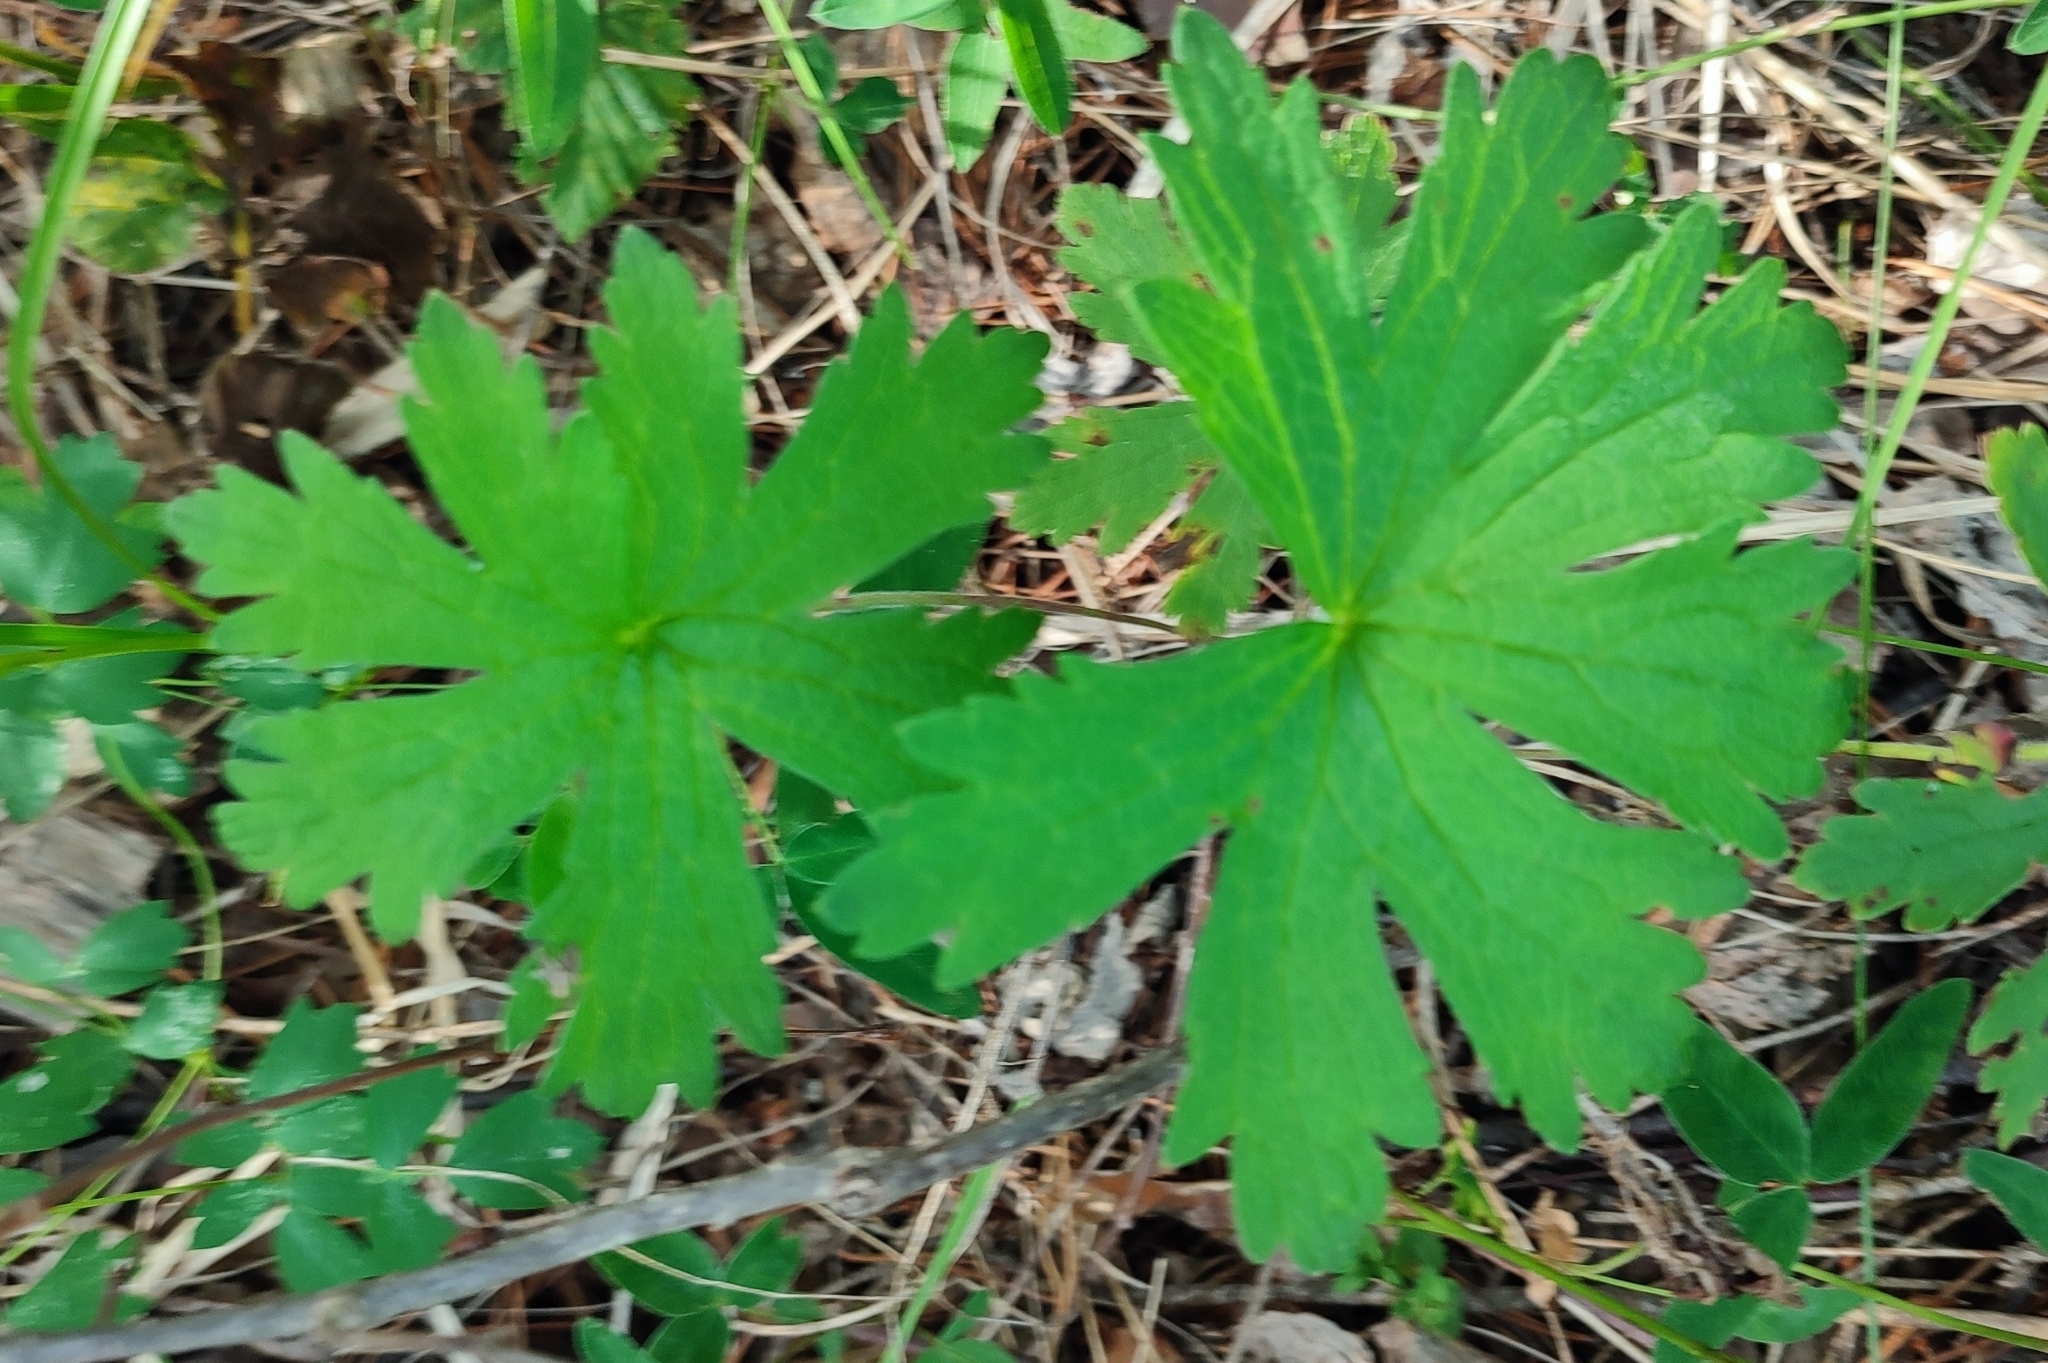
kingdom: Plantae
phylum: Tracheophyta
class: Magnoliopsida
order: Geraniales
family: Geraniaceae
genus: Geranium
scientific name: Geranium sylvaticum
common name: Wood crane's-bill
